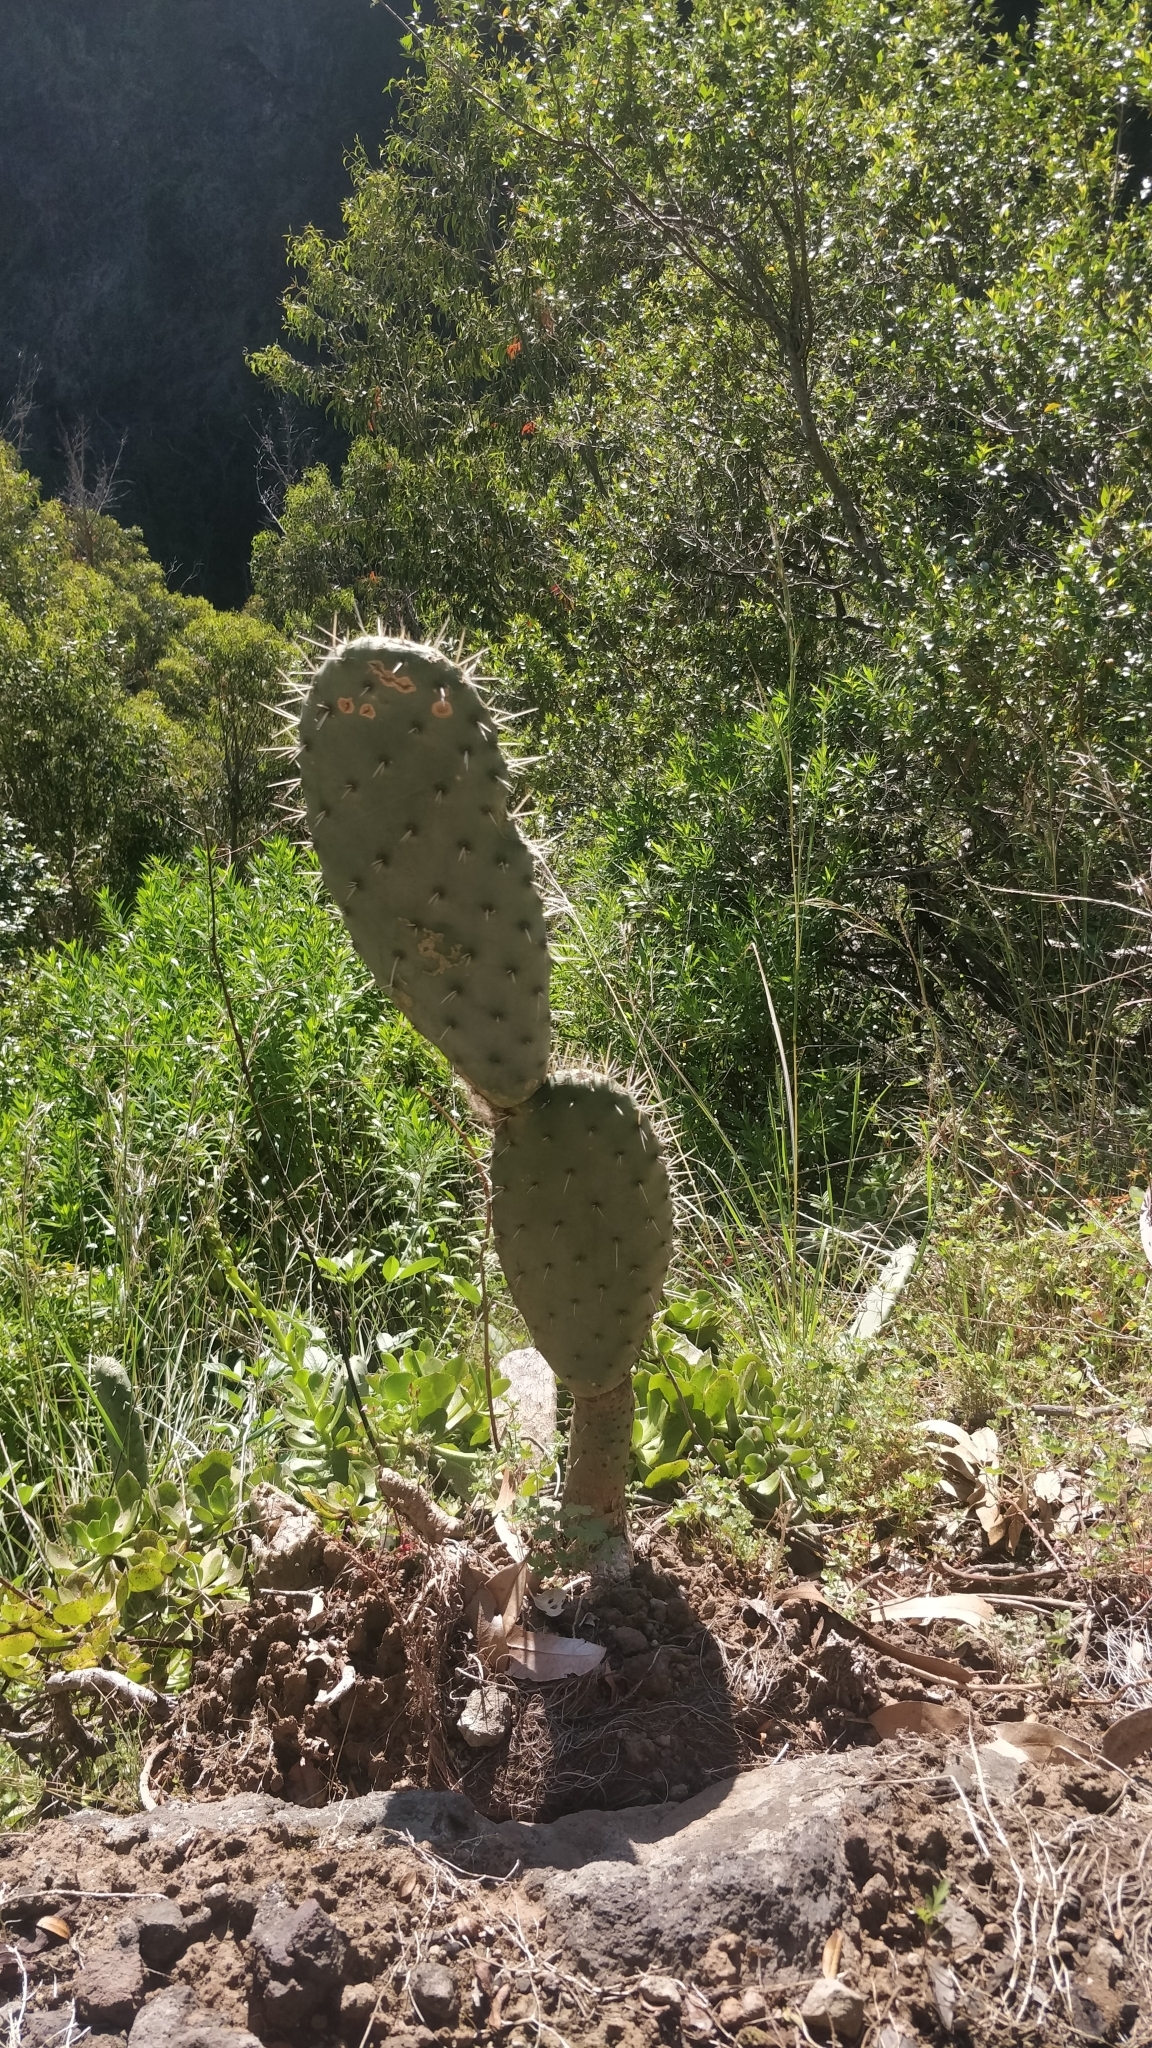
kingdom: Plantae
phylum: Tracheophyta
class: Magnoliopsida
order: Caryophyllales
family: Cactaceae
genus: Opuntia
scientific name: Opuntia ficus-indica
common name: Barbary fig
